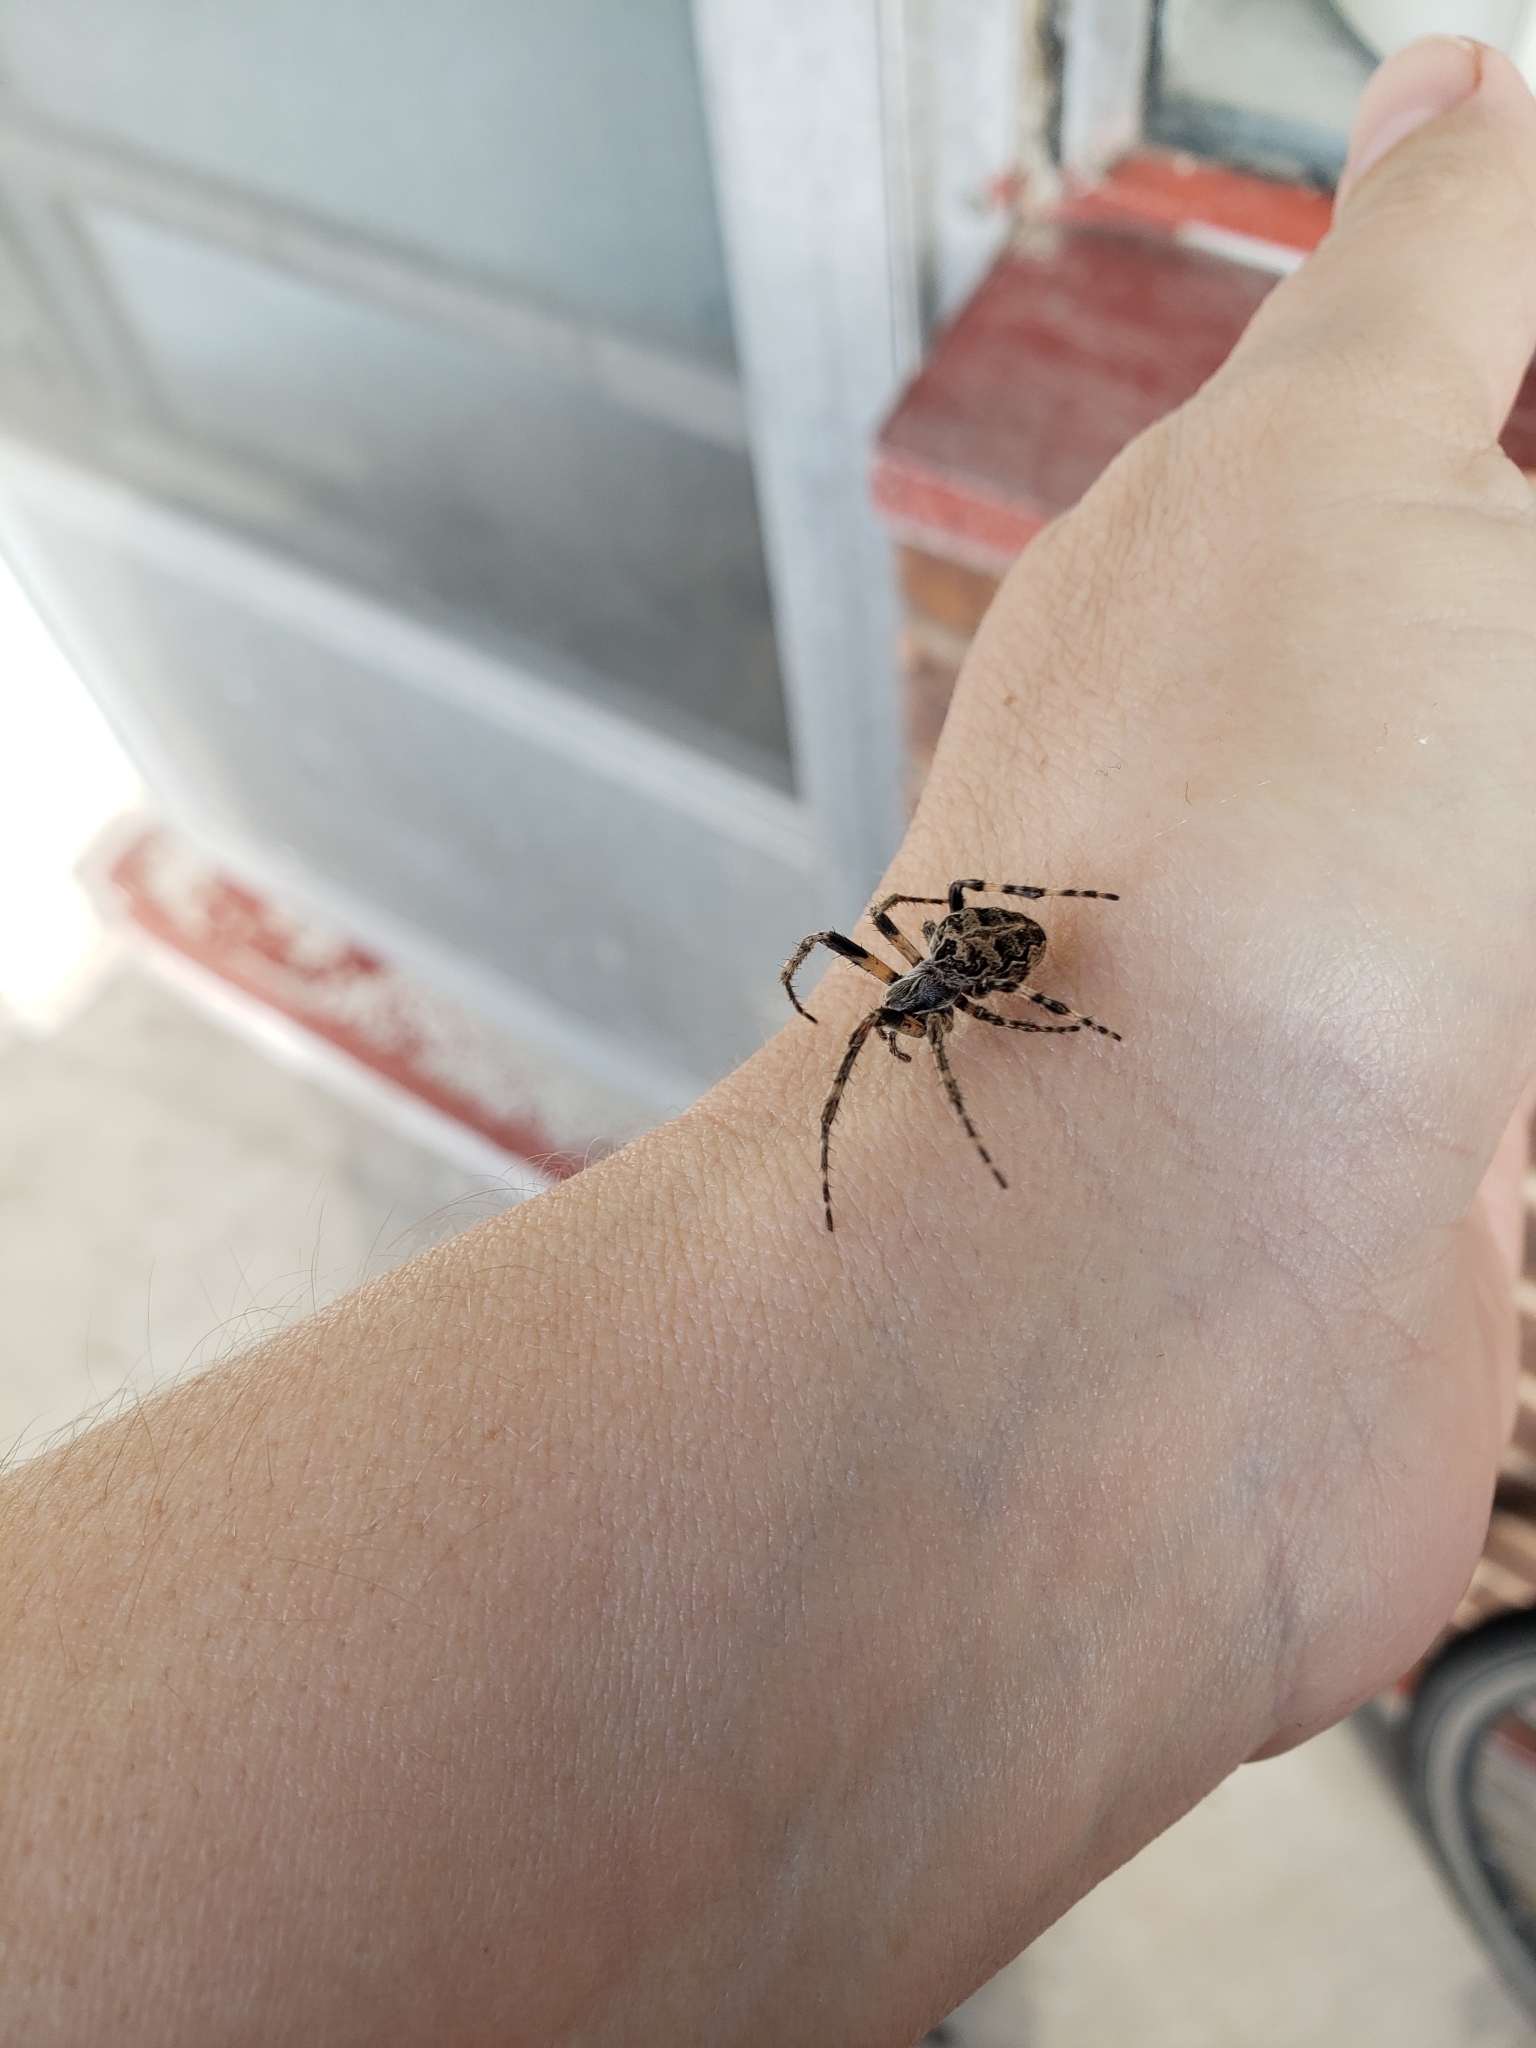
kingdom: Animalia
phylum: Arthropoda
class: Arachnida
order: Araneae
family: Araneidae
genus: Larinioides
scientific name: Larinioides sclopetarius
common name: Bridge orbweaver
